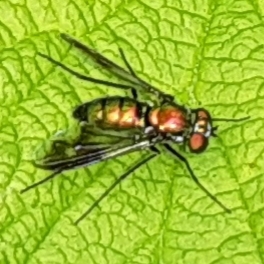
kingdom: Animalia
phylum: Arthropoda
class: Insecta
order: Diptera
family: Dolichopodidae
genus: Condylostylus
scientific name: Condylostylus patibulatus
